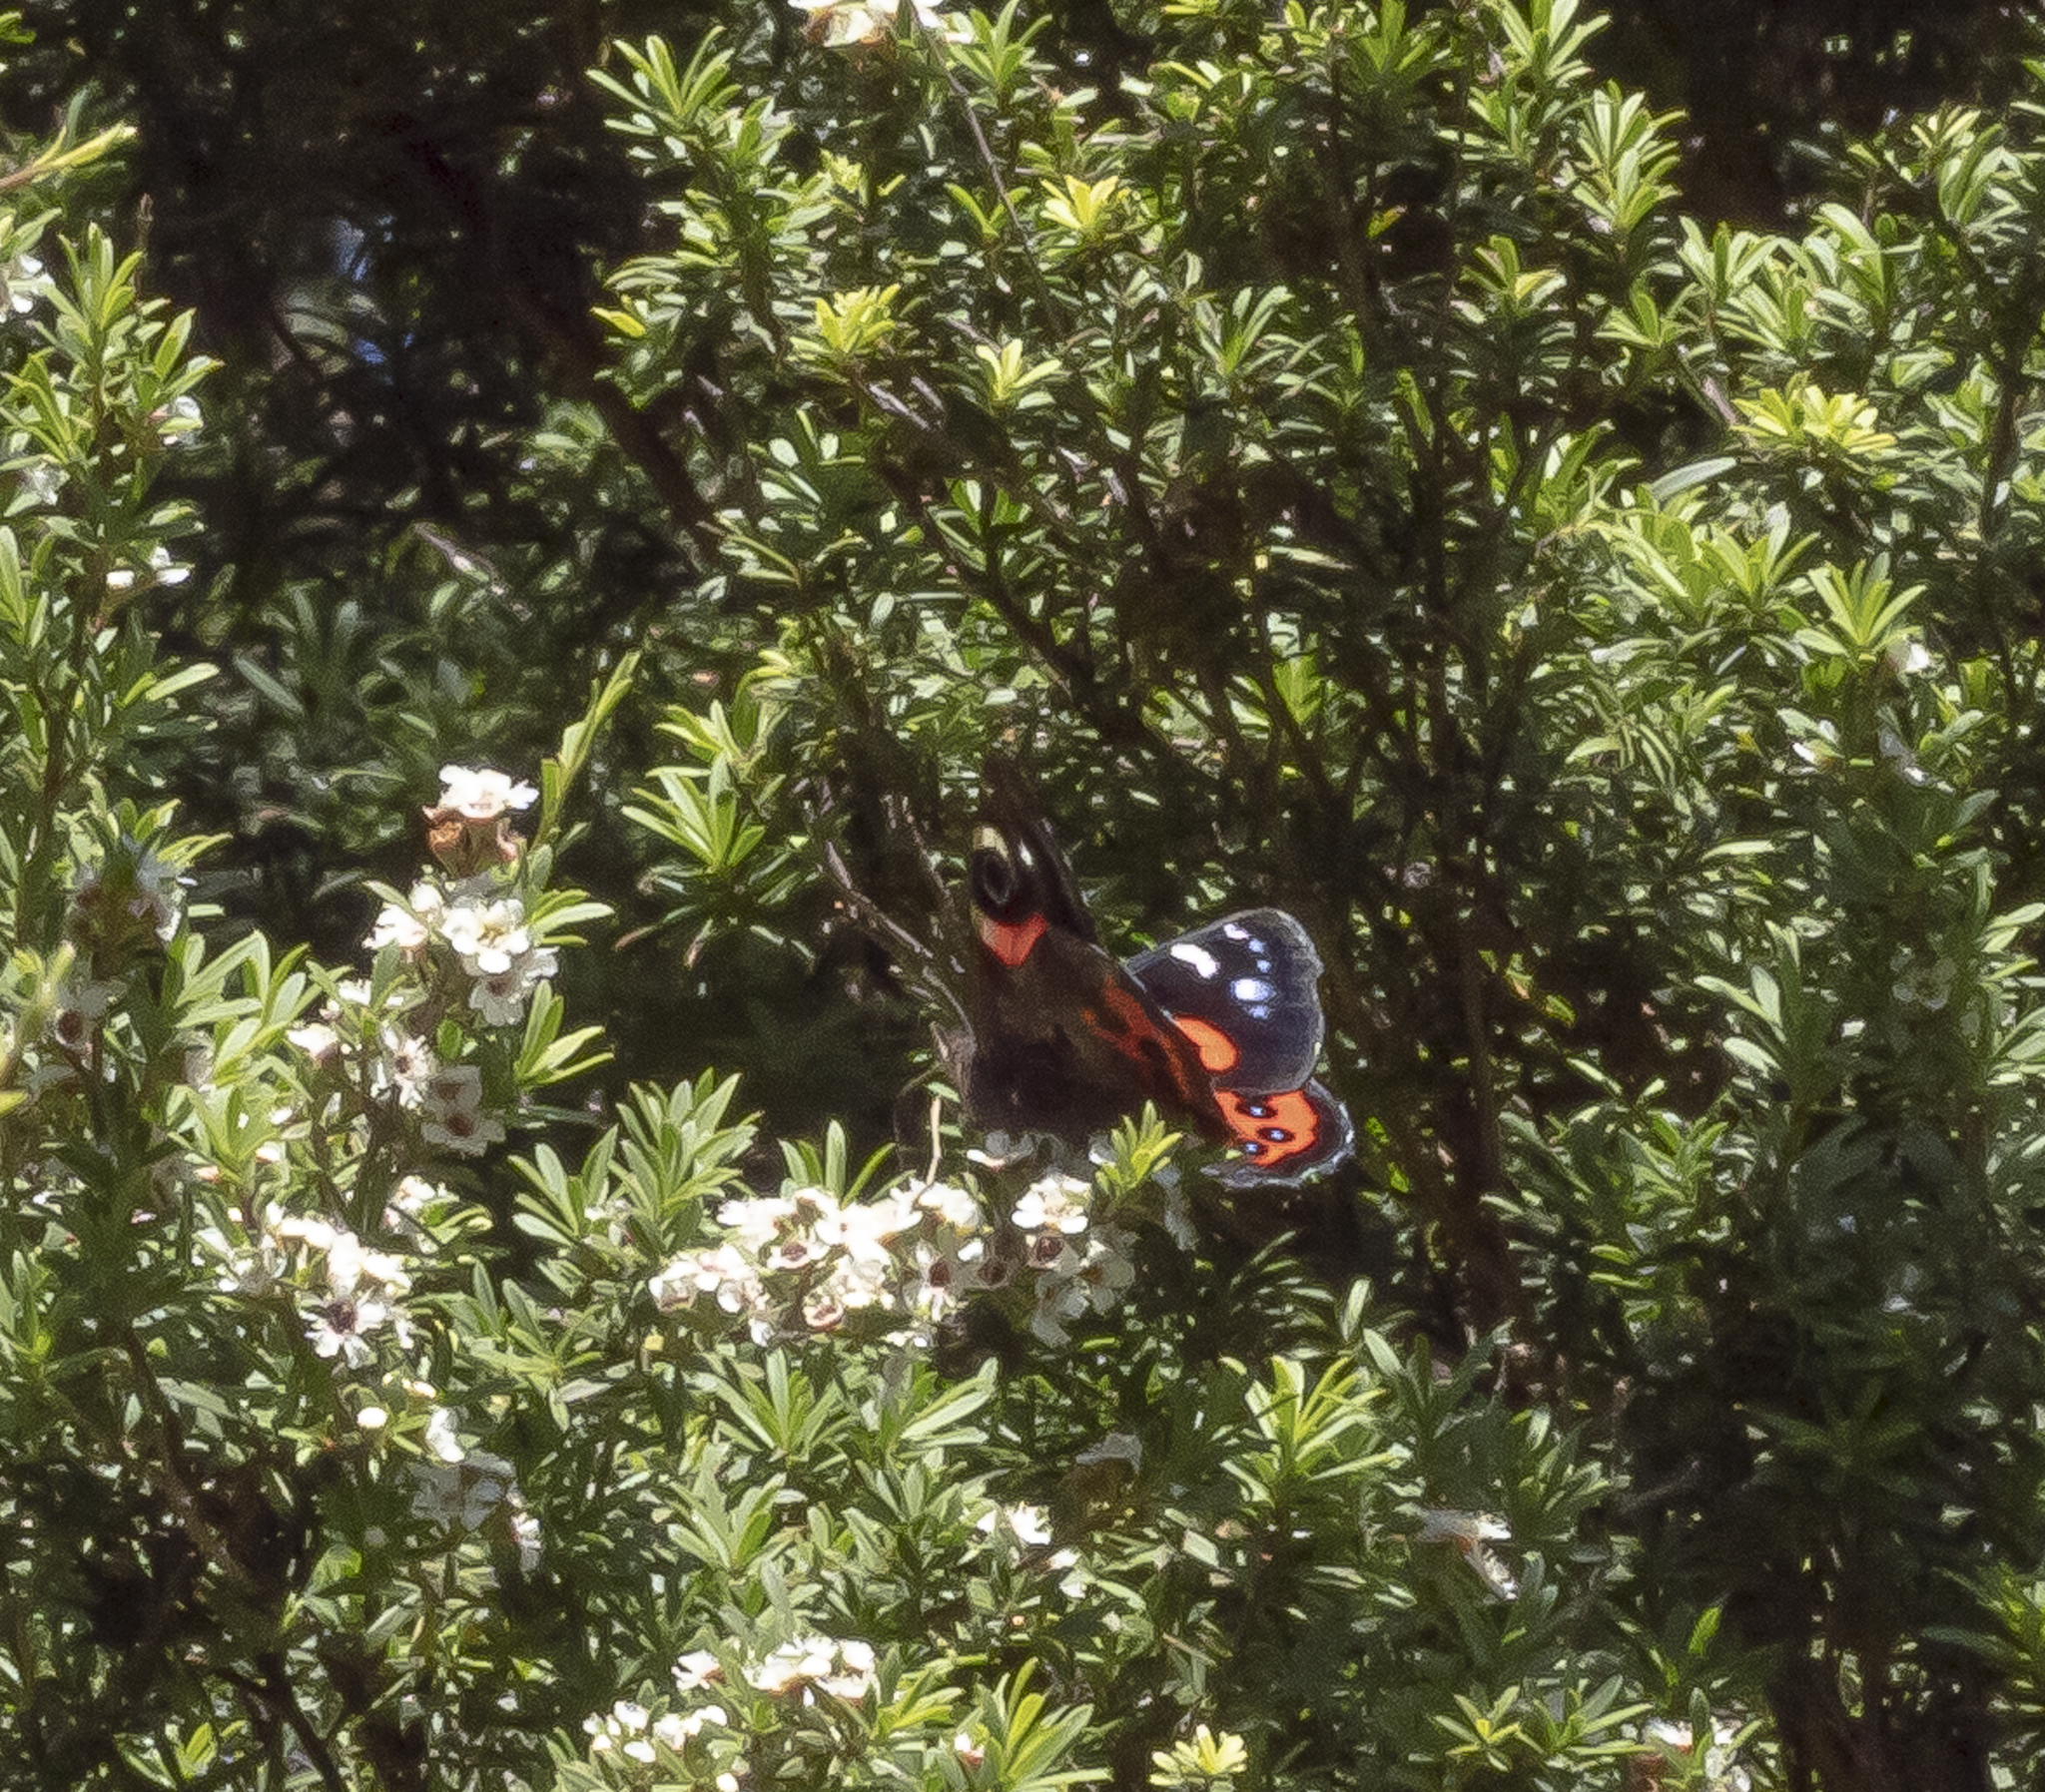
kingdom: Animalia
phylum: Arthropoda
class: Insecta
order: Lepidoptera
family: Nymphalidae
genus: Vanessa
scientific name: Vanessa gonerilla
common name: New zealand red admiral
